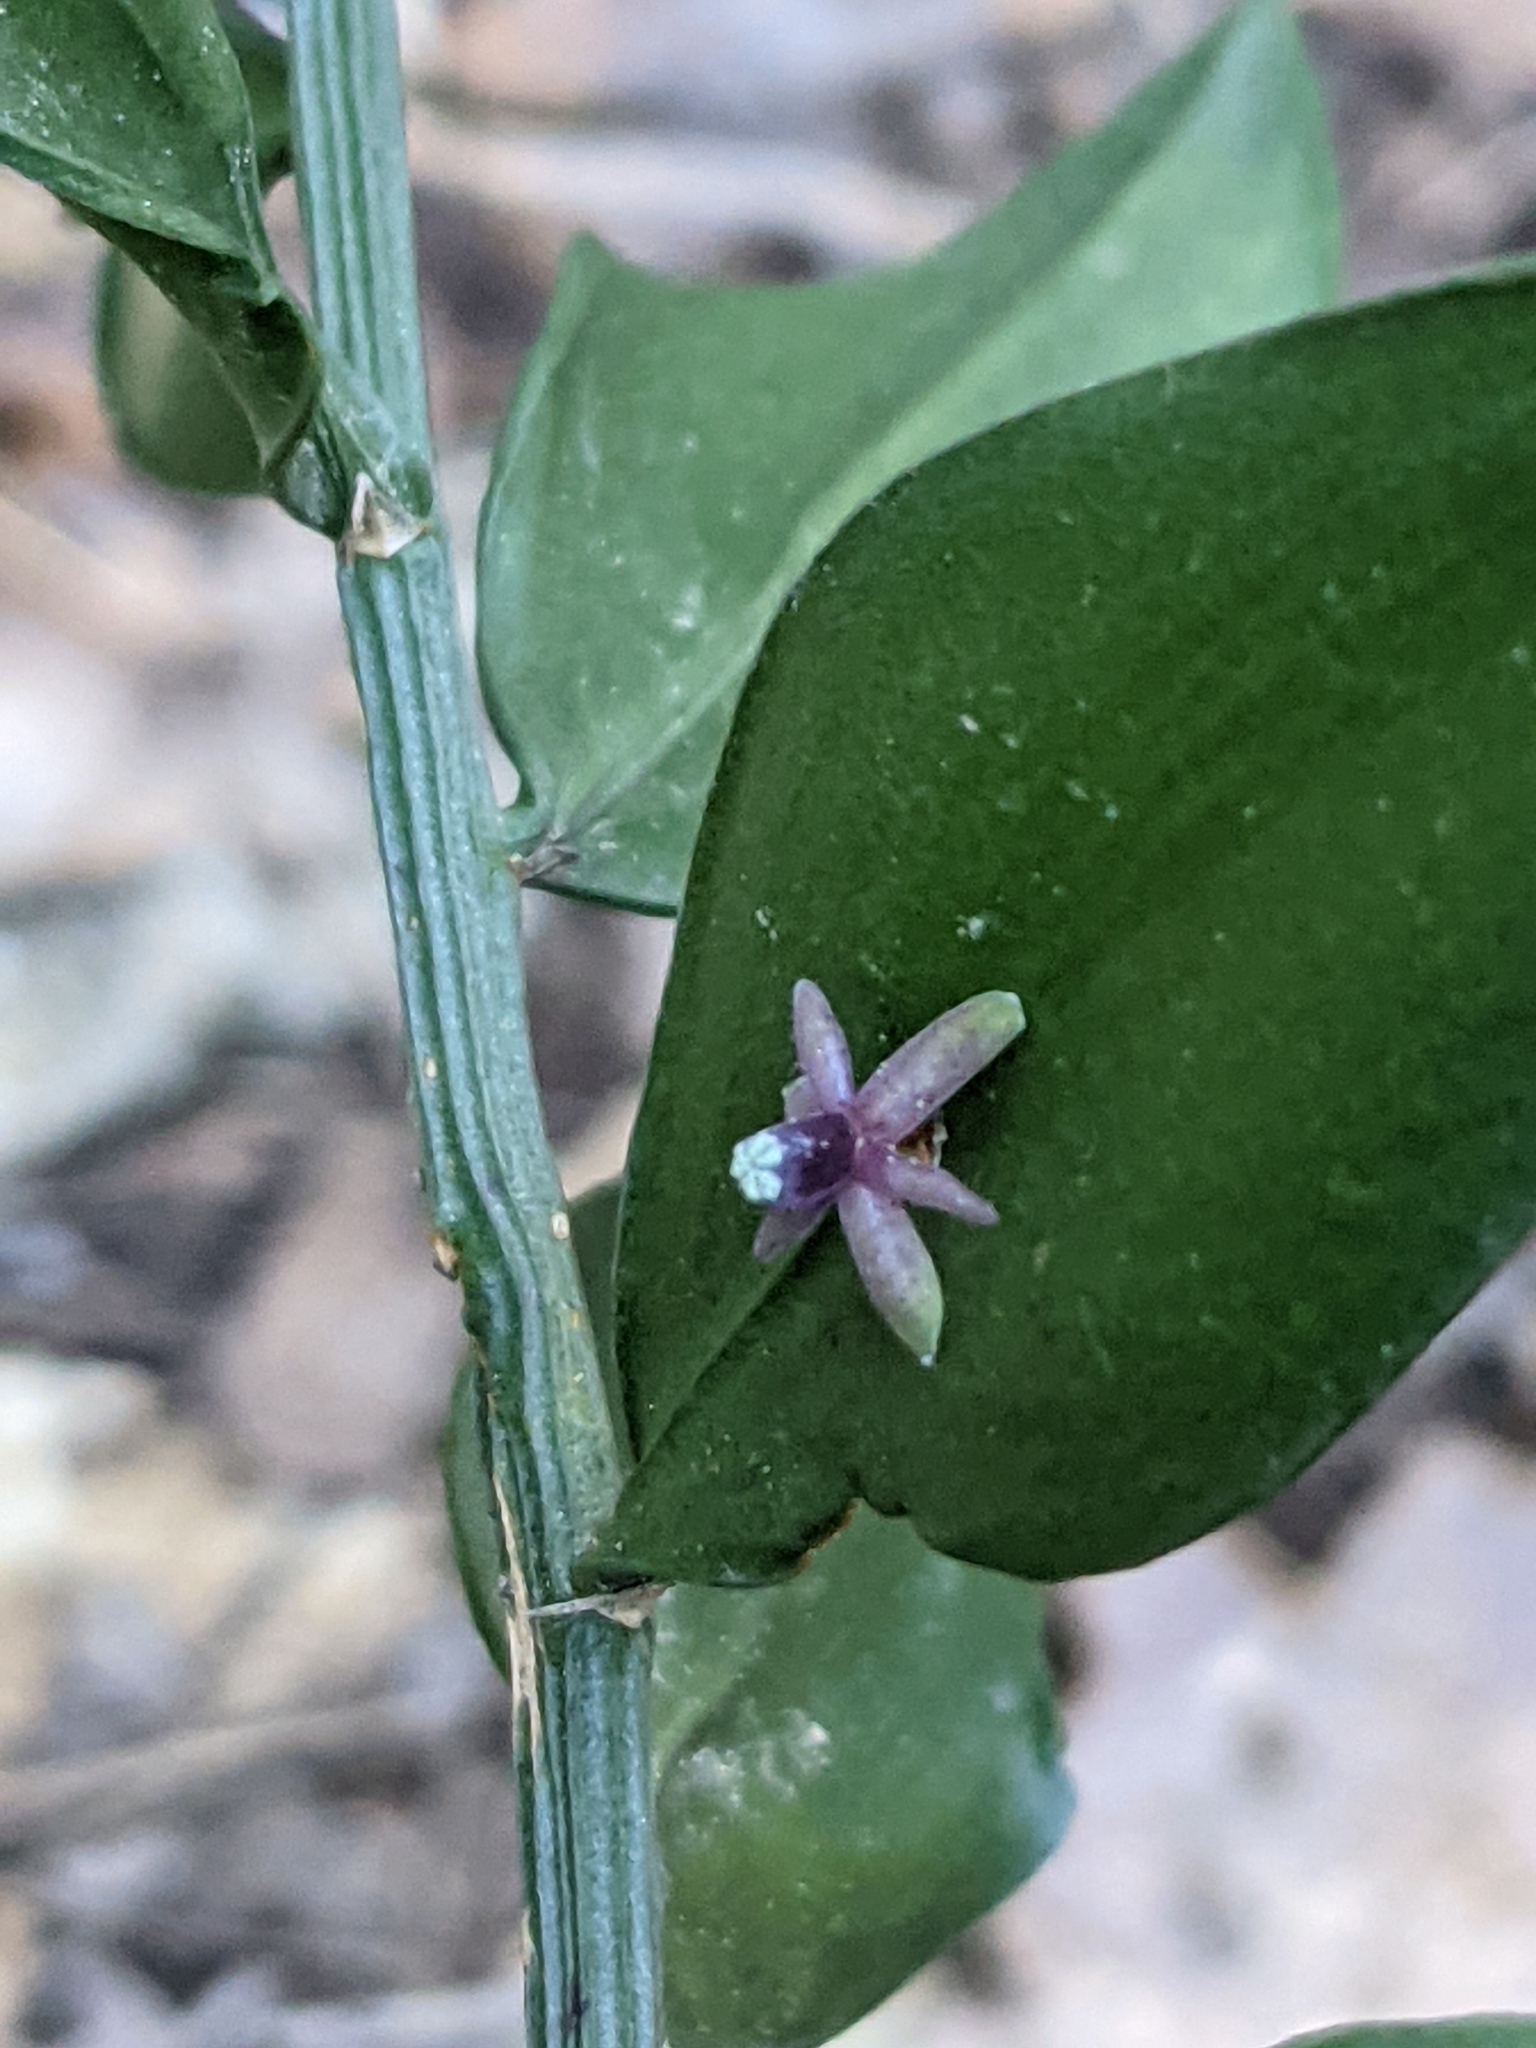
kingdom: Plantae
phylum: Tracheophyta
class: Liliopsida
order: Asparagales
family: Asparagaceae
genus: Ruscus
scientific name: Ruscus aculeatus
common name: Butcher's-broom
